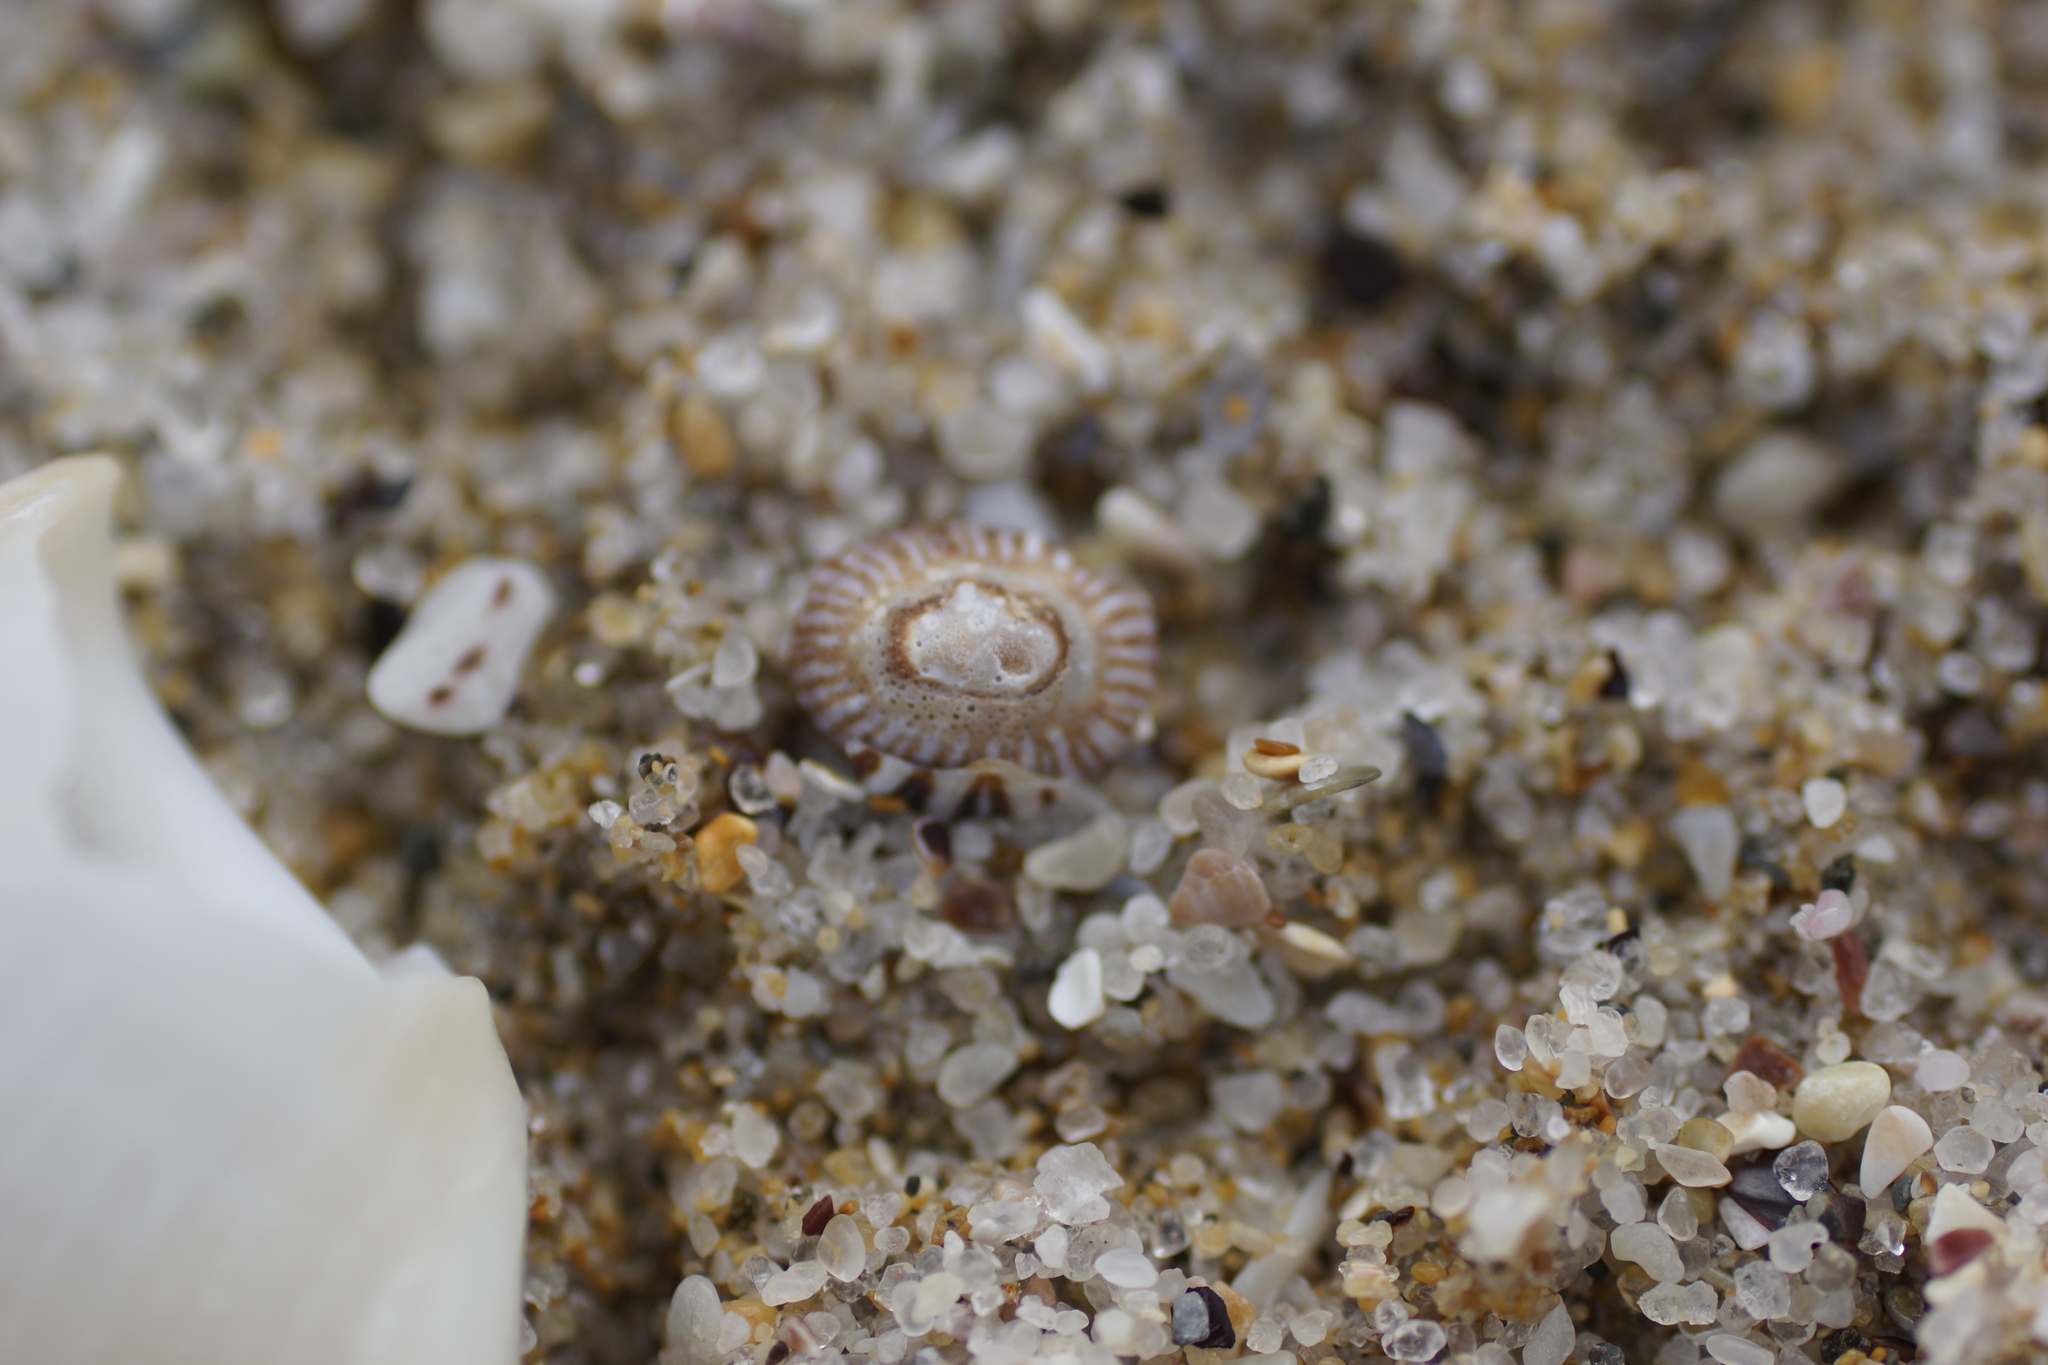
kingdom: Animalia
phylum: Mollusca
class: Gastropoda
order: Siphonariida
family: Siphonariidae
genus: Siphonaria
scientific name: Siphonaria diemenensis
